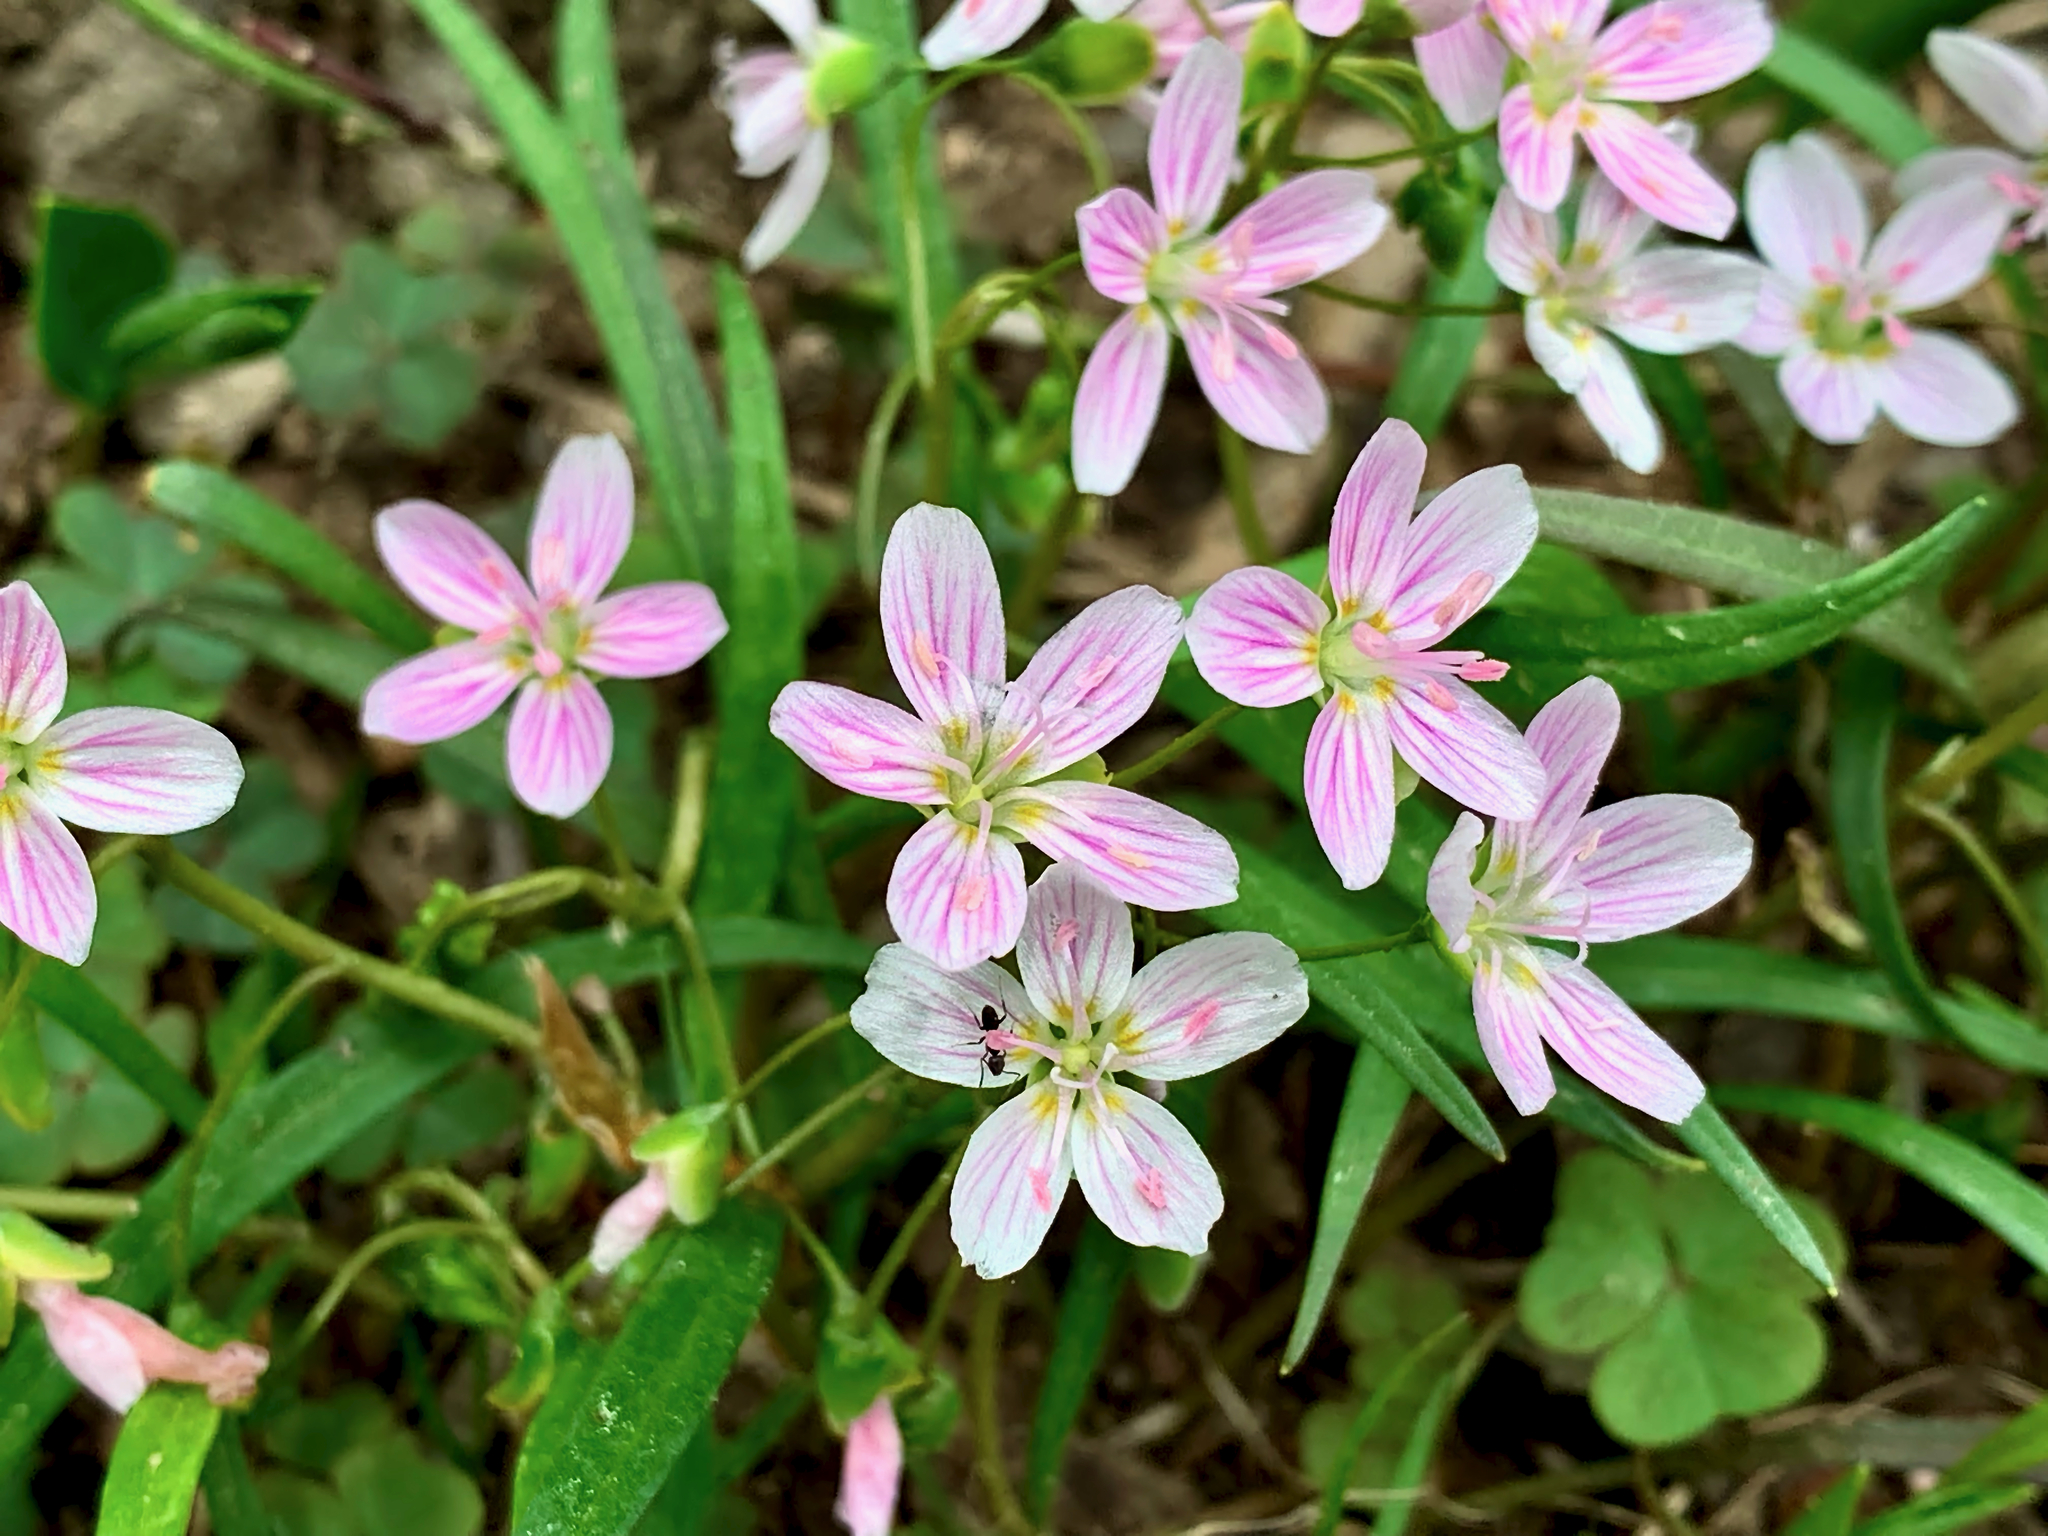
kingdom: Plantae
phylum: Tracheophyta
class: Magnoliopsida
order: Caryophyllales
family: Montiaceae
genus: Claytonia
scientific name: Claytonia virginica
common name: Virginia springbeauty
